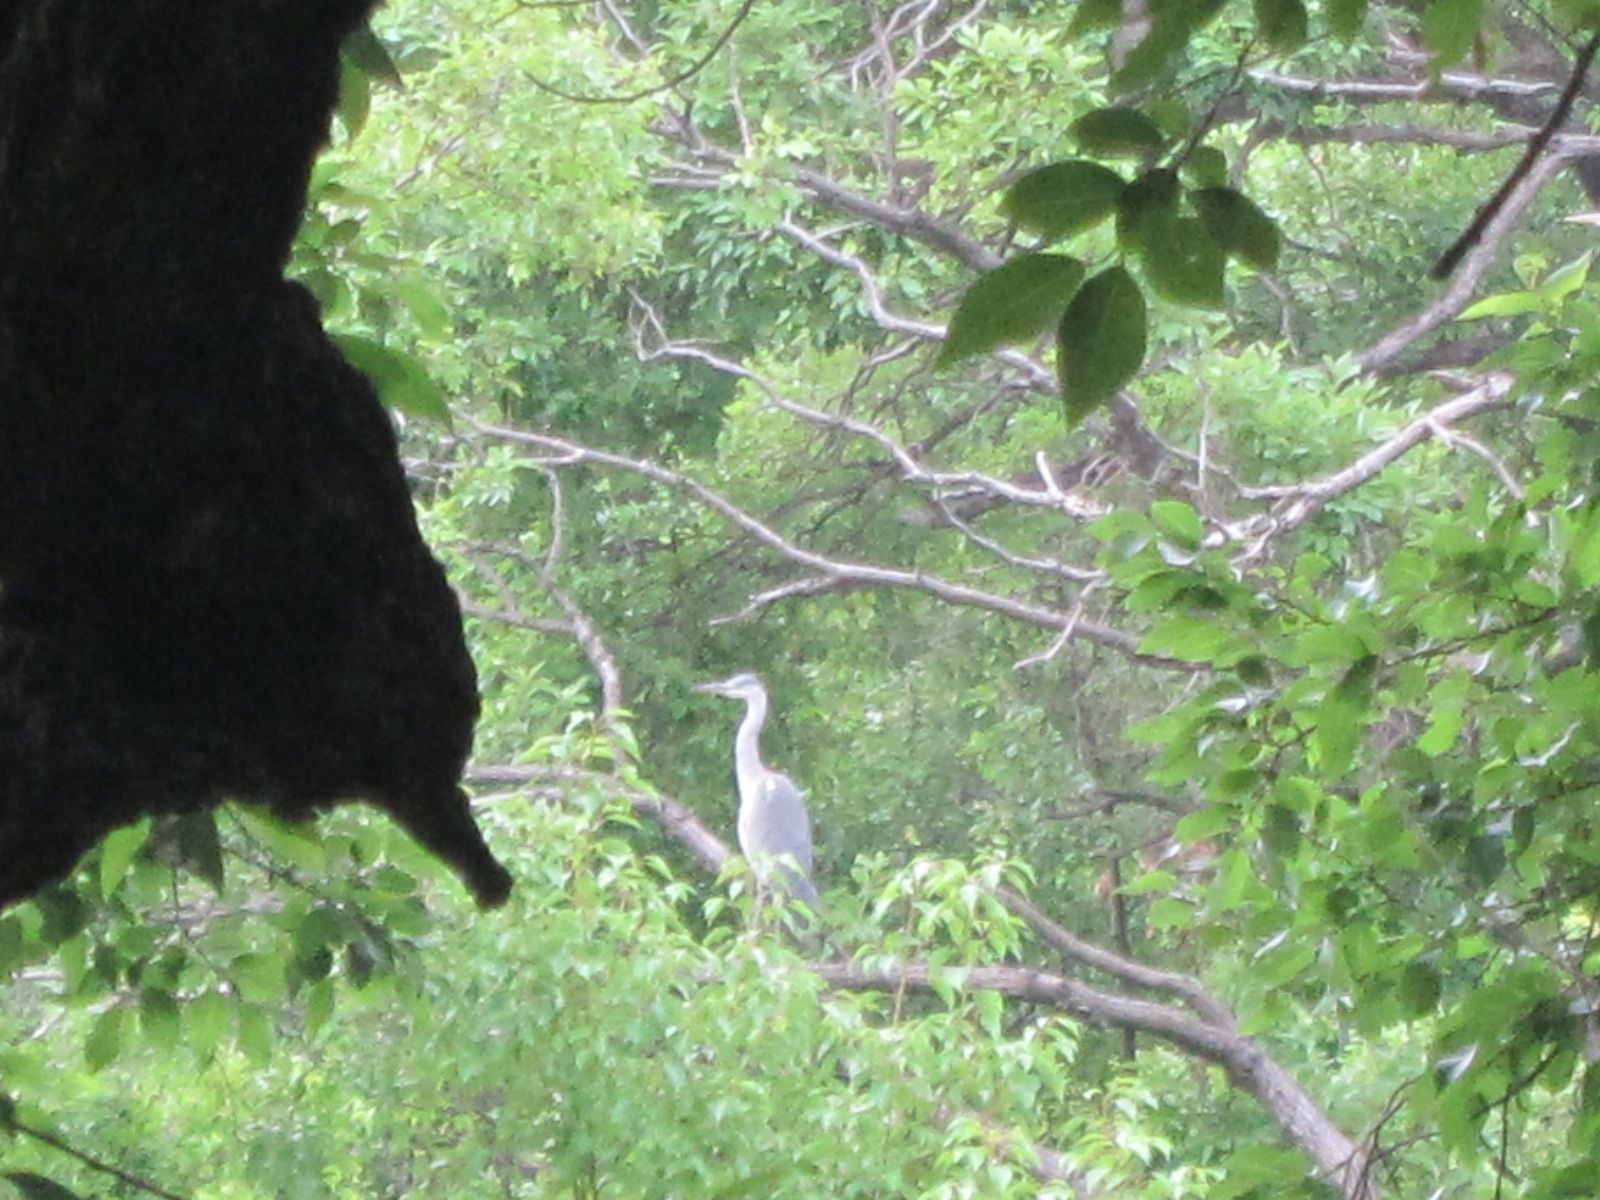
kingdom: Animalia
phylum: Chordata
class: Aves
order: Pelecaniformes
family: Ardeidae
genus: Ardea
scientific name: Ardea cinerea
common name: Grey heron
